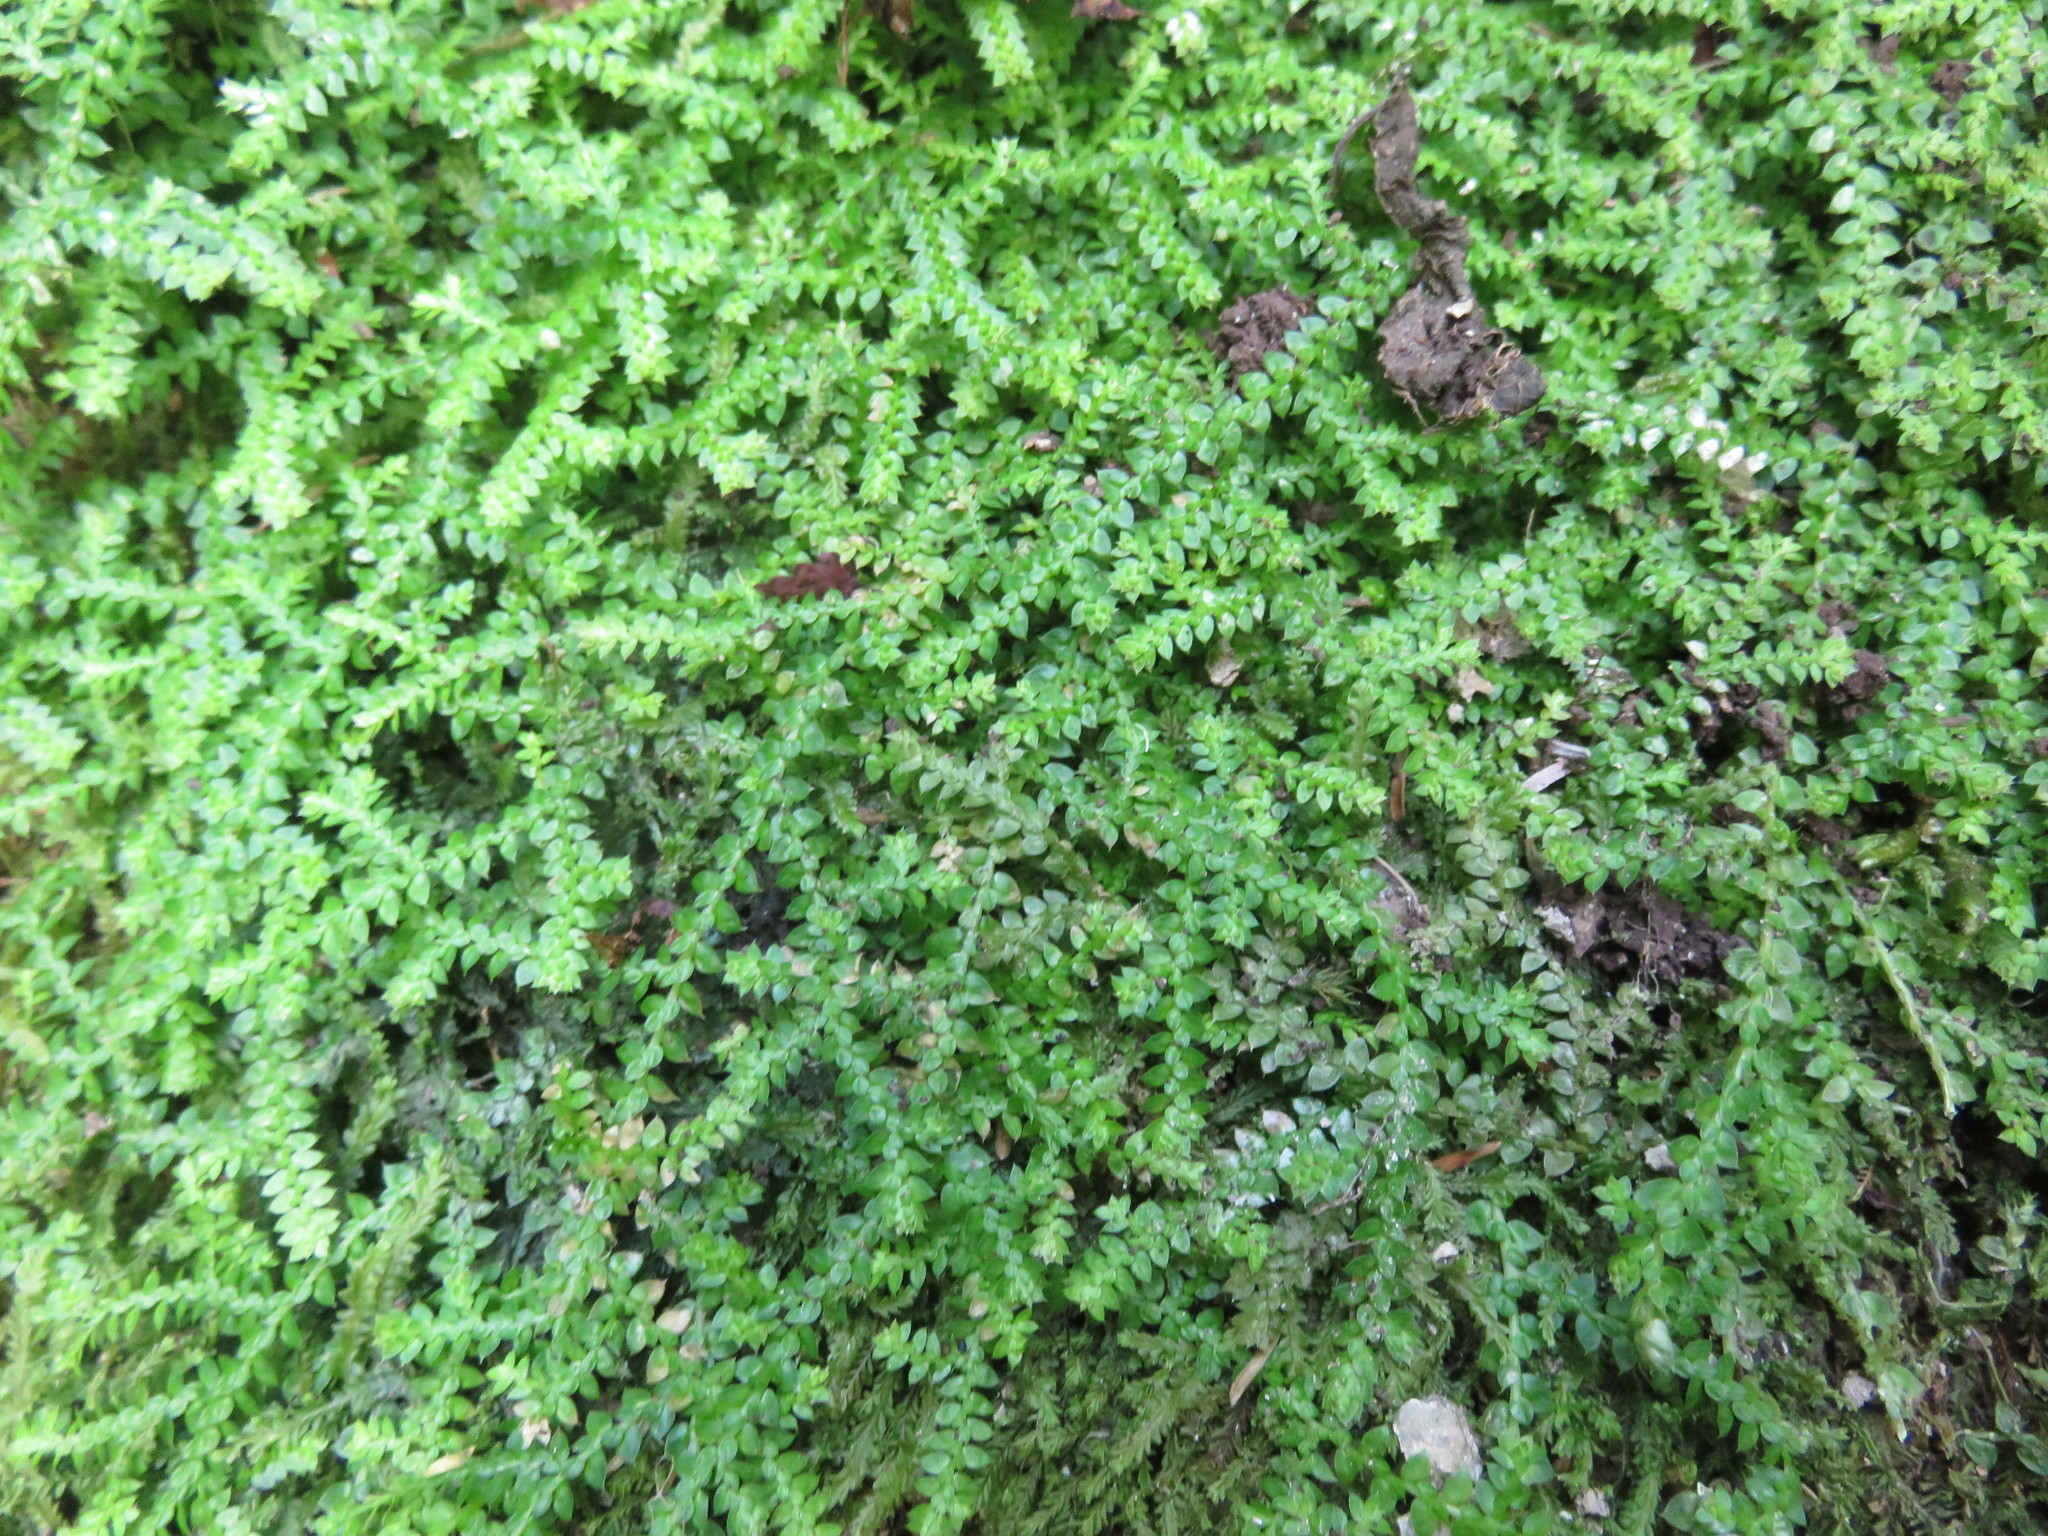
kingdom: Plantae
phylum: Tracheophyta
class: Lycopodiopsida
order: Selaginellales
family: Selaginellaceae
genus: Selaginella
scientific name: Selaginella denticulata
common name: Toothed-leaved clubmoss
